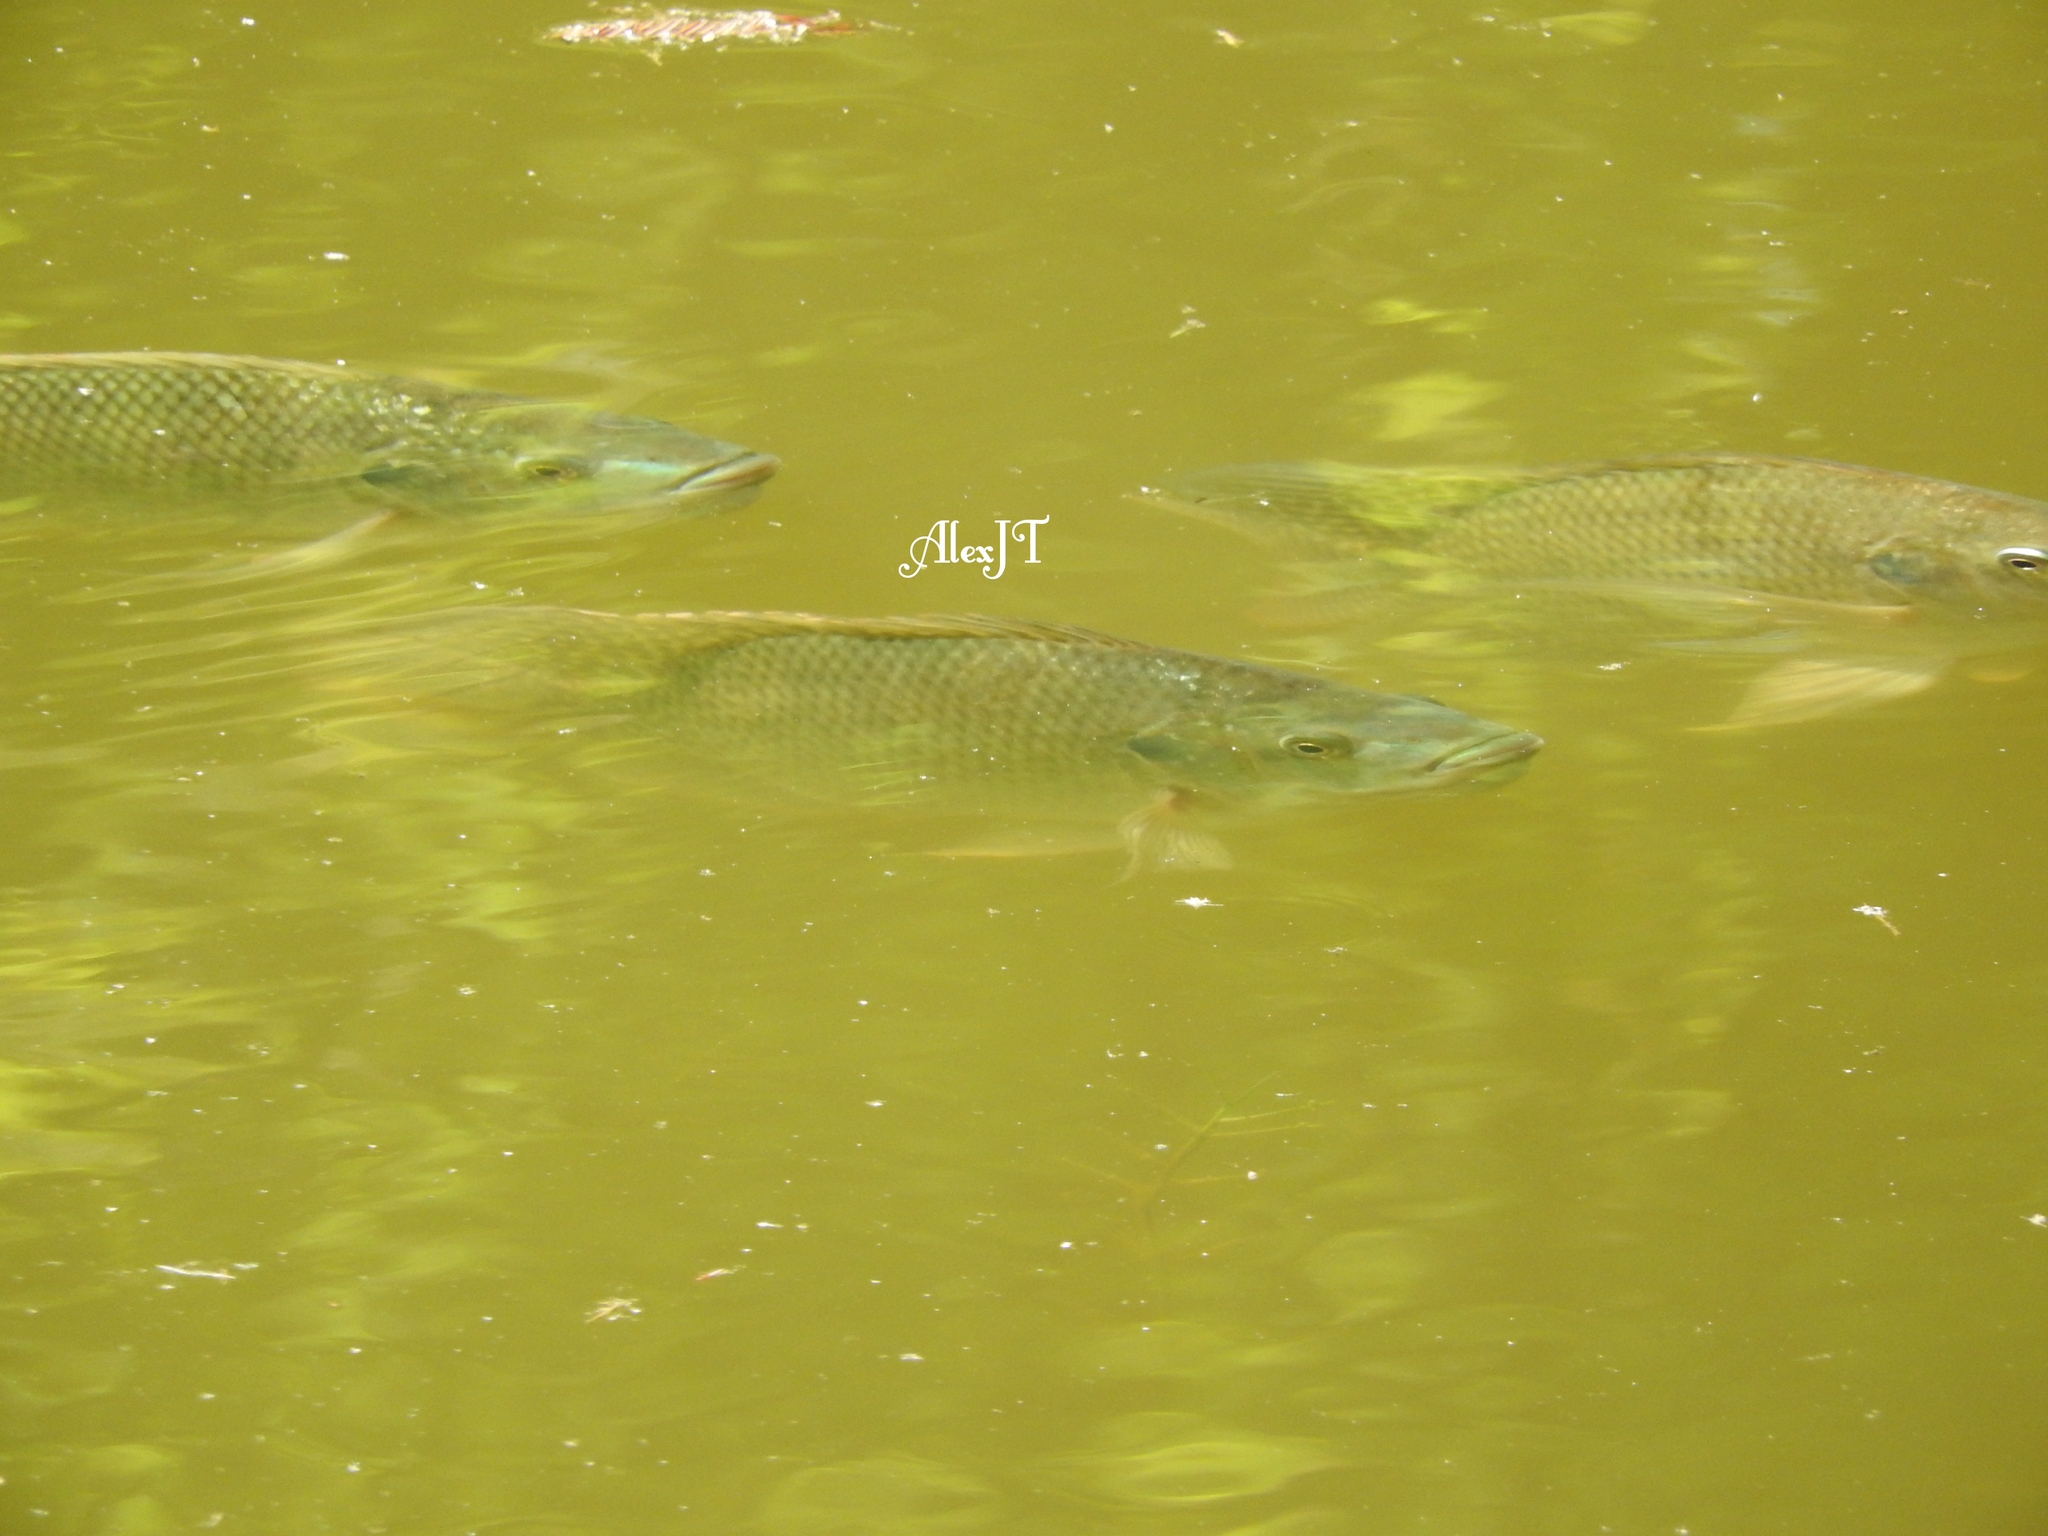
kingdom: Animalia
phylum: Chordata
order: Perciformes
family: Cichlidae
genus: Oreochromis
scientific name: Oreochromis niloticus
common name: Nile tilapia
